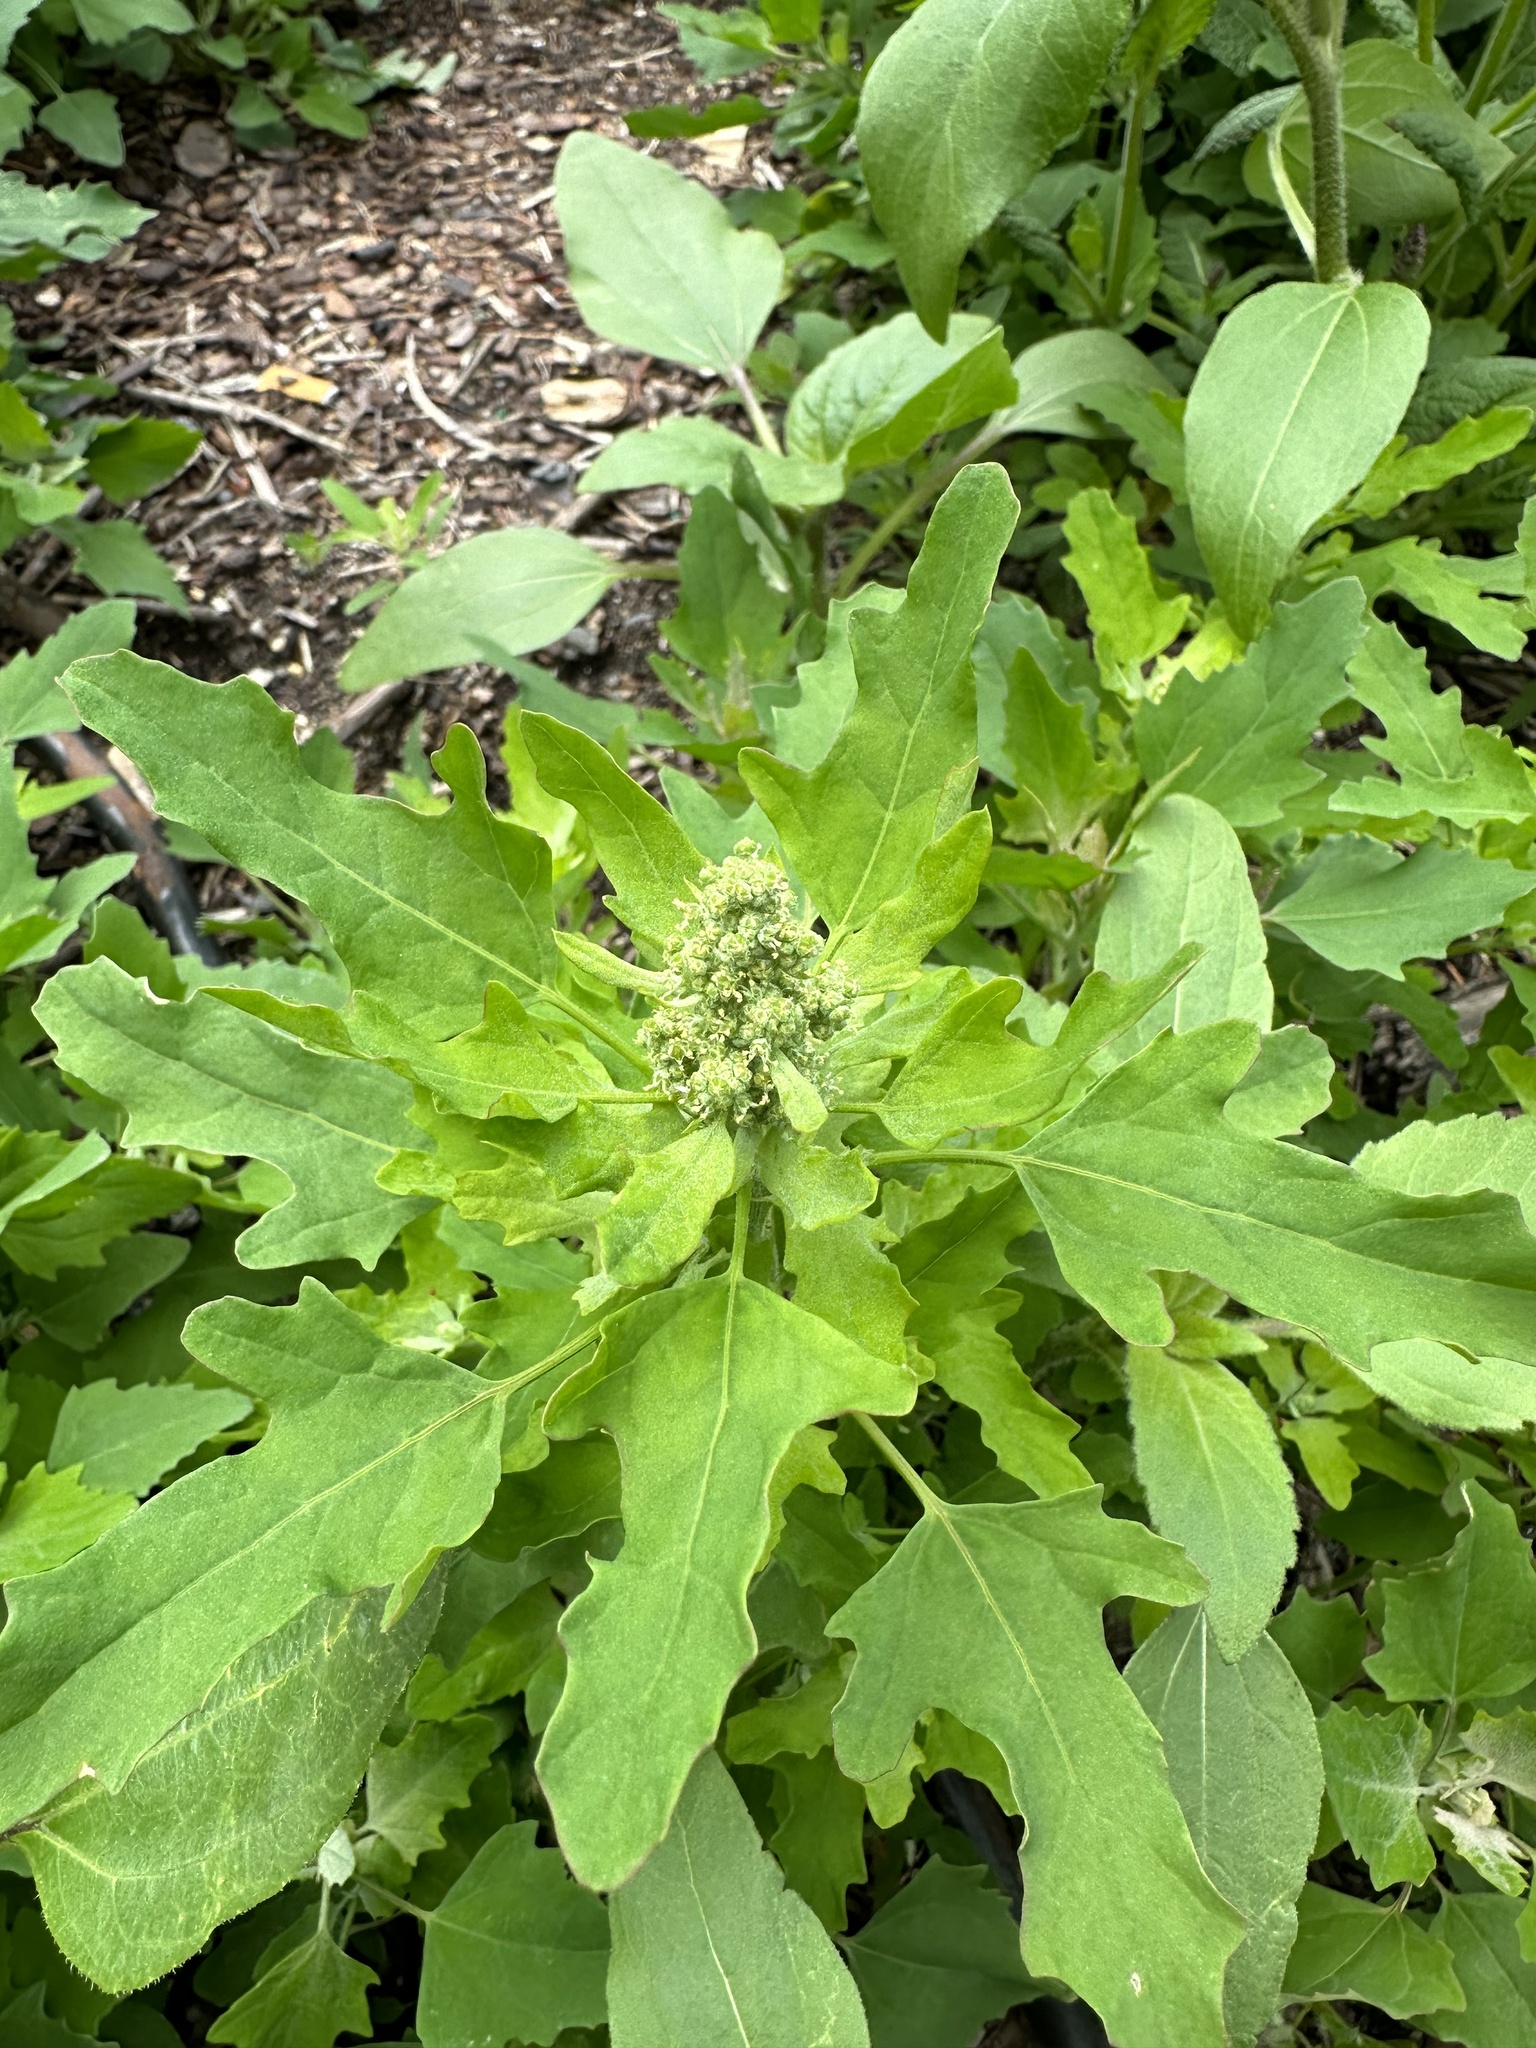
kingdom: Plantae
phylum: Tracheophyta
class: Magnoliopsida
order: Caryophyllales
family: Amaranthaceae
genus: Chenopodium
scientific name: Chenopodium ficifolium
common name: Fig-leaved goosefoot
